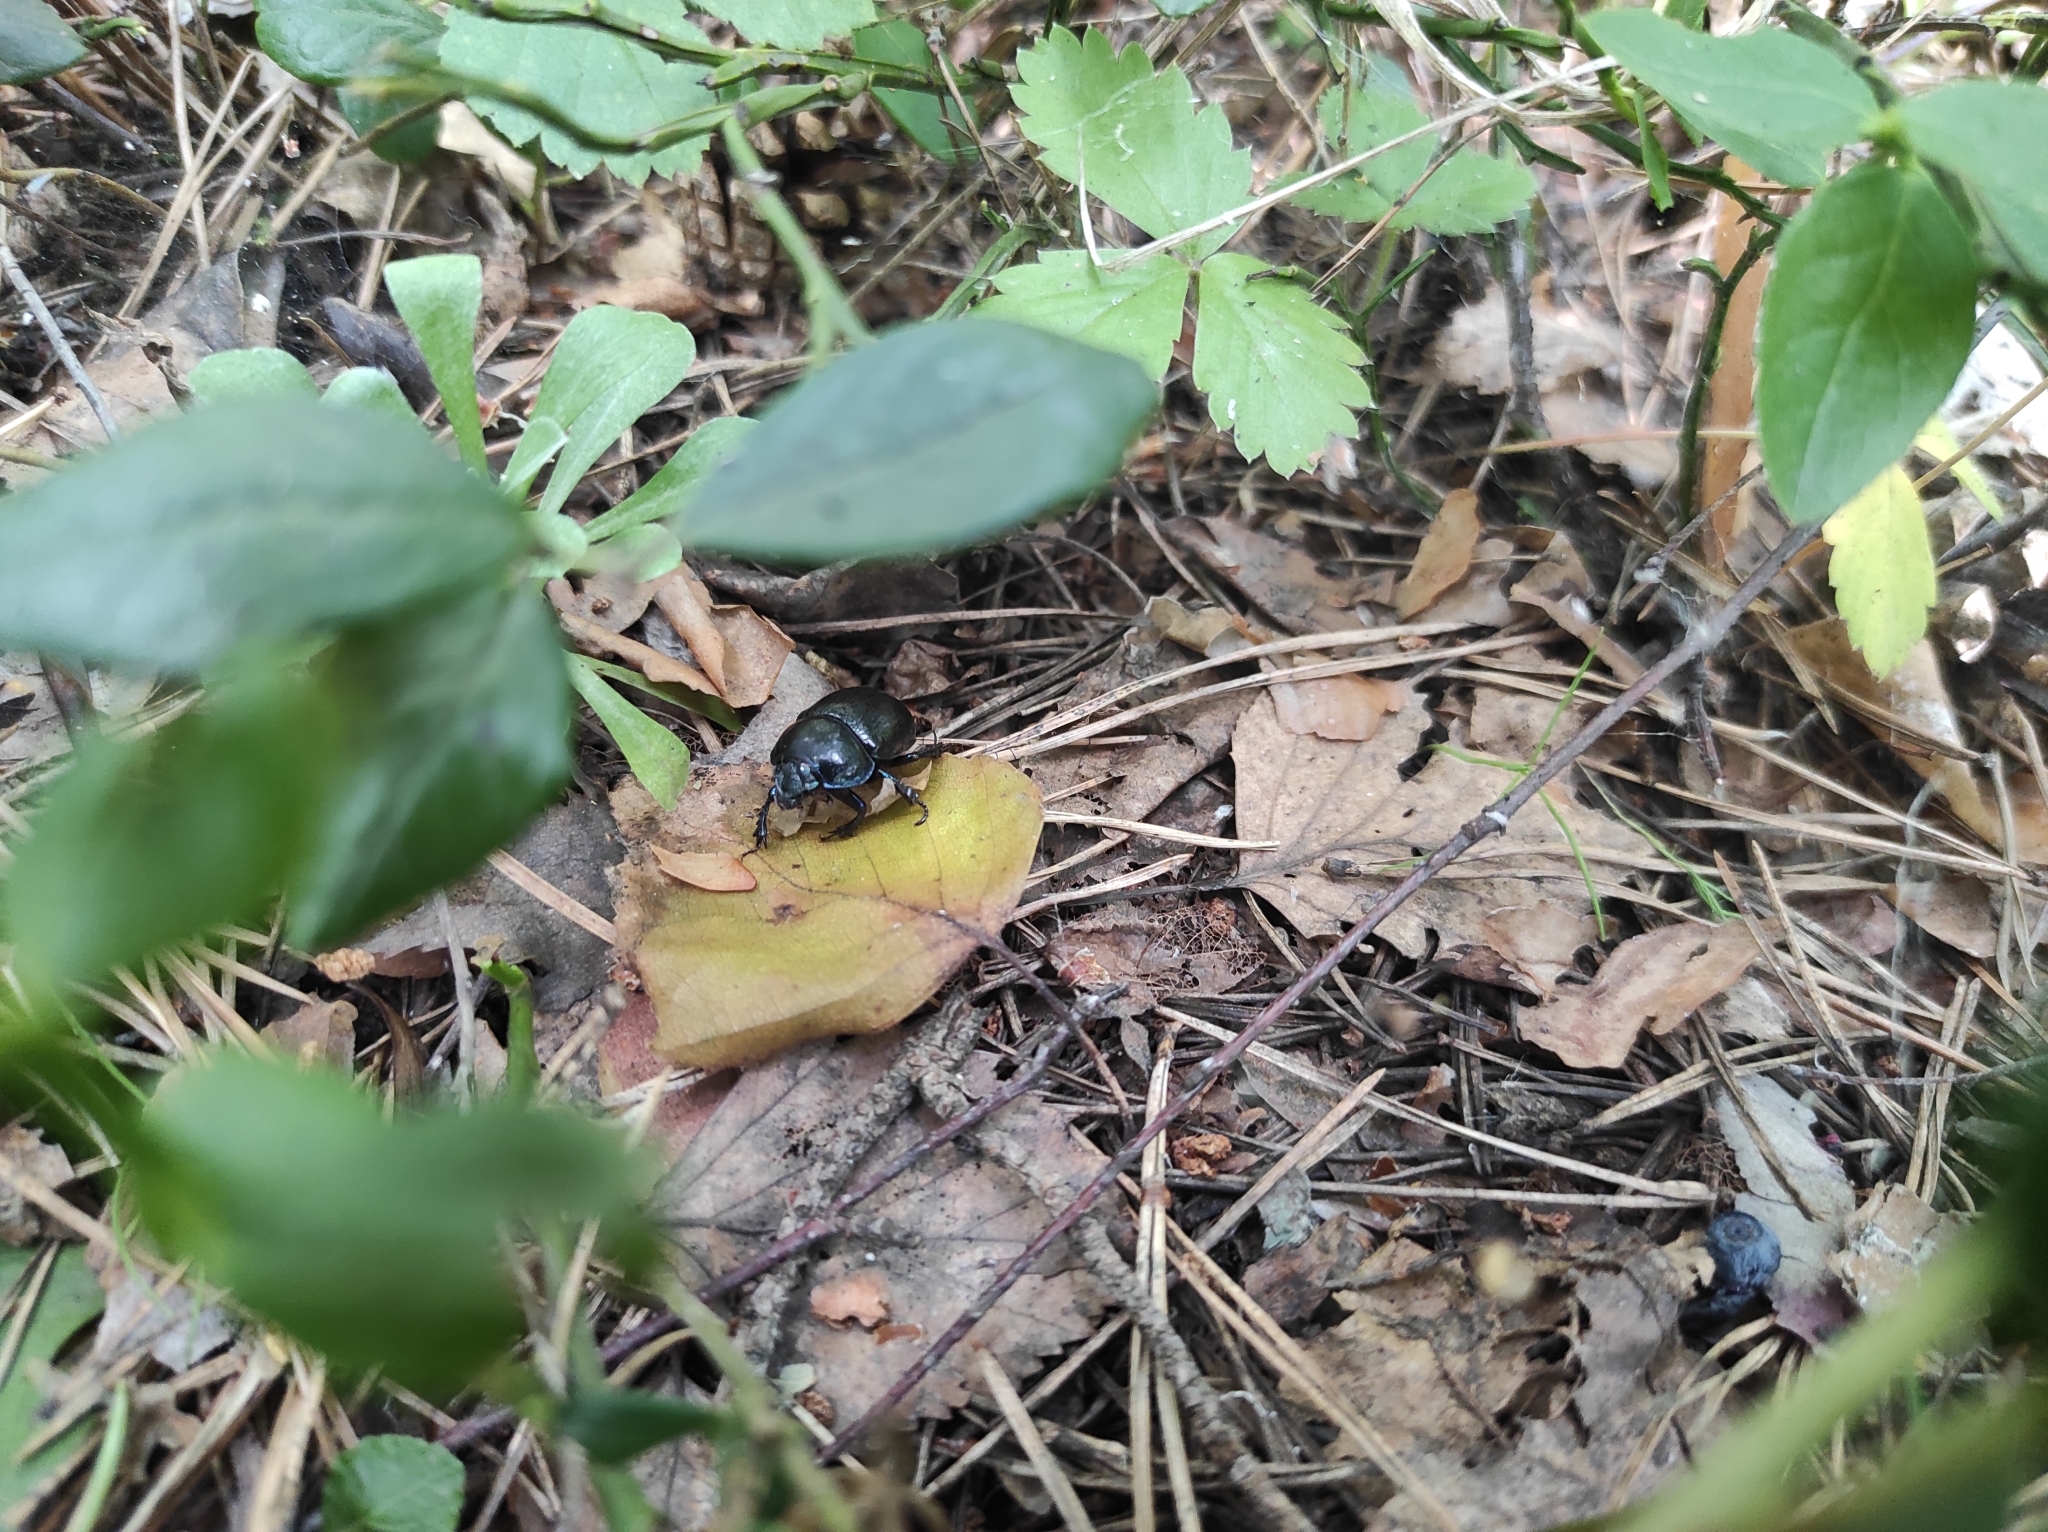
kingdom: Animalia
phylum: Arthropoda
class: Insecta
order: Coleoptera
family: Geotrupidae
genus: Anoplotrupes
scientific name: Anoplotrupes stercorosus
